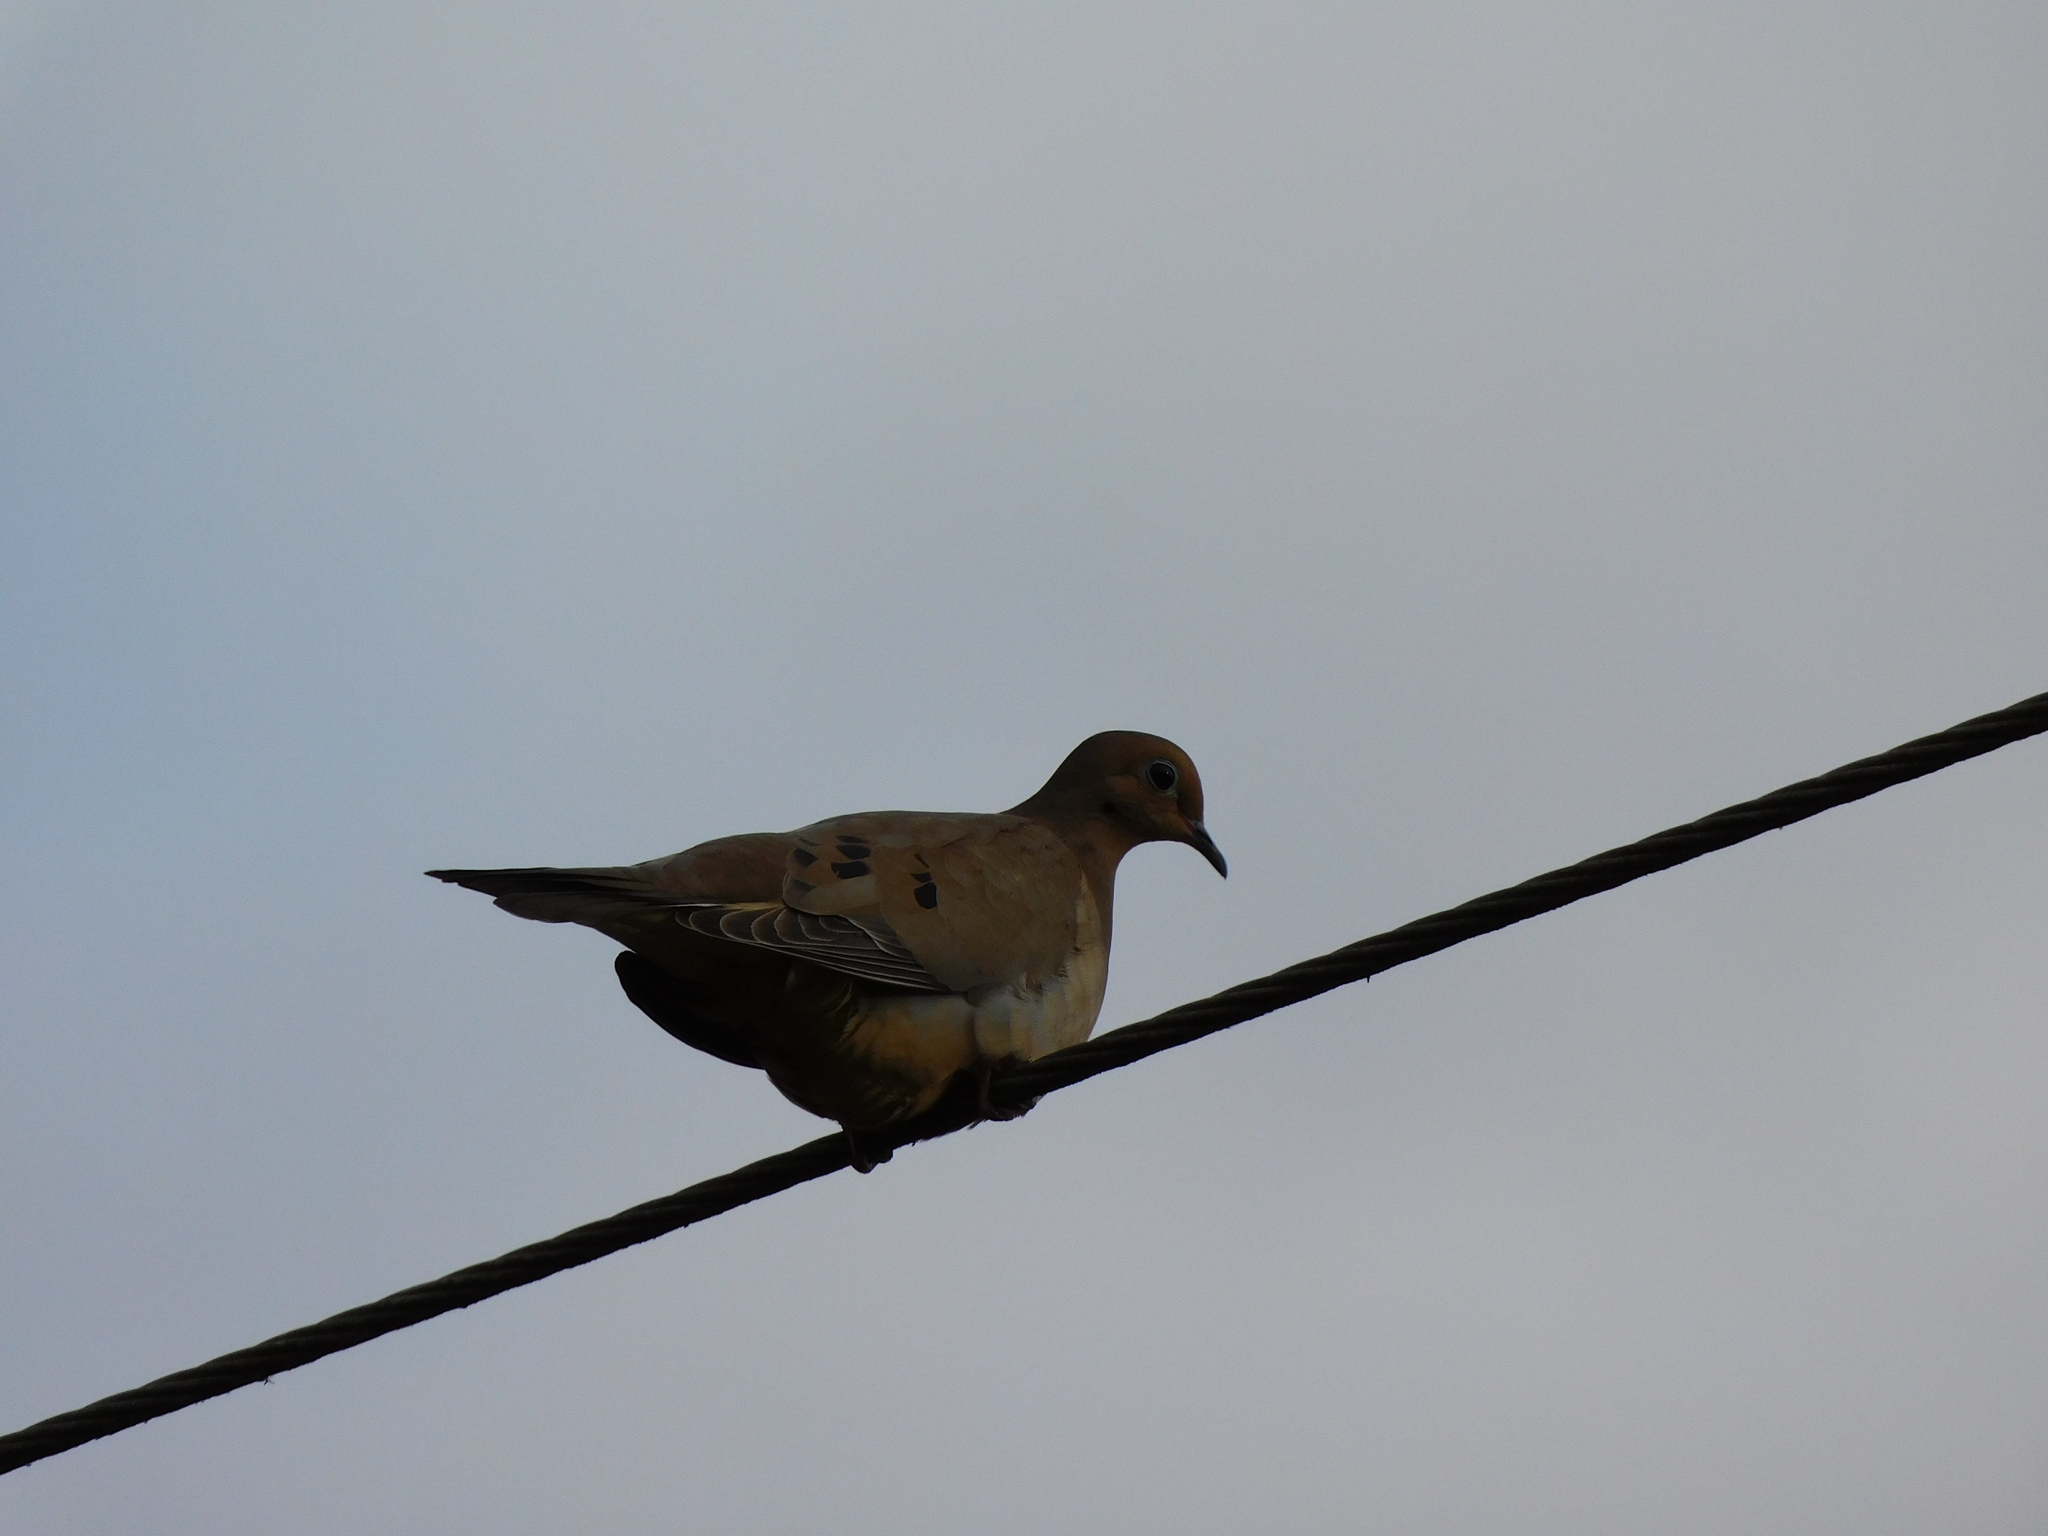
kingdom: Animalia
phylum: Chordata
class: Aves
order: Columbiformes
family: Columbidae
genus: Zenaida
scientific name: Zenaida macroura
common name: Mourning dove
